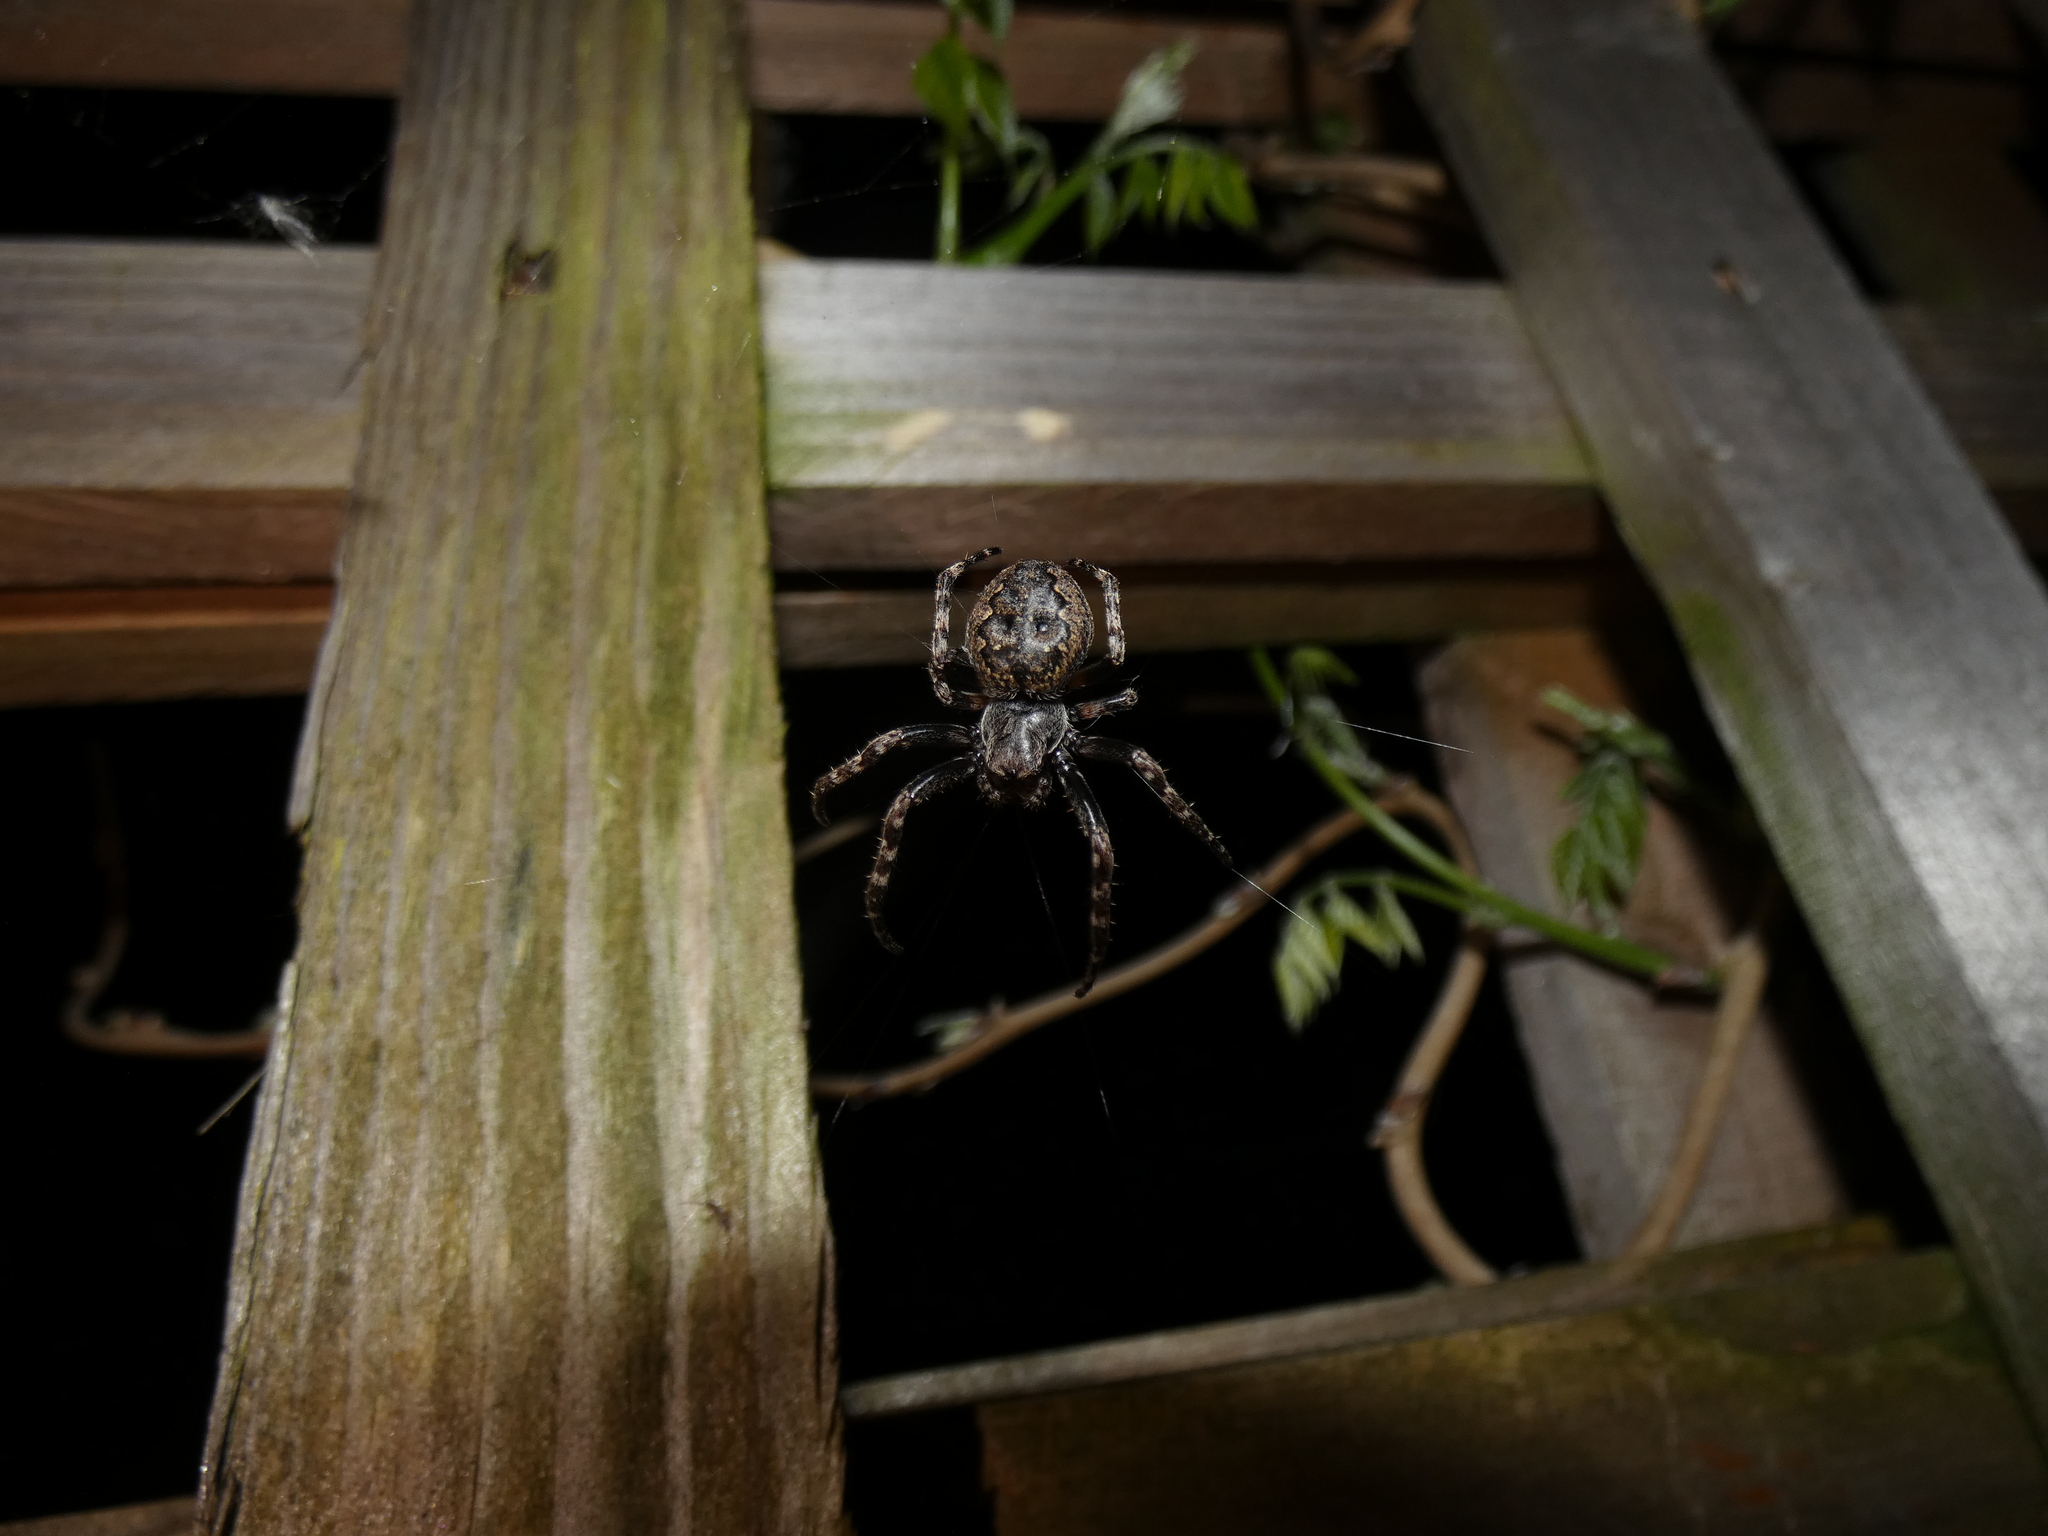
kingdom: Animalia
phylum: Arthropoda
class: Arachnida
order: Araneae
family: Araneidae
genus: Nuctenea
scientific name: Nuctenea umbratica
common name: Toad spider
